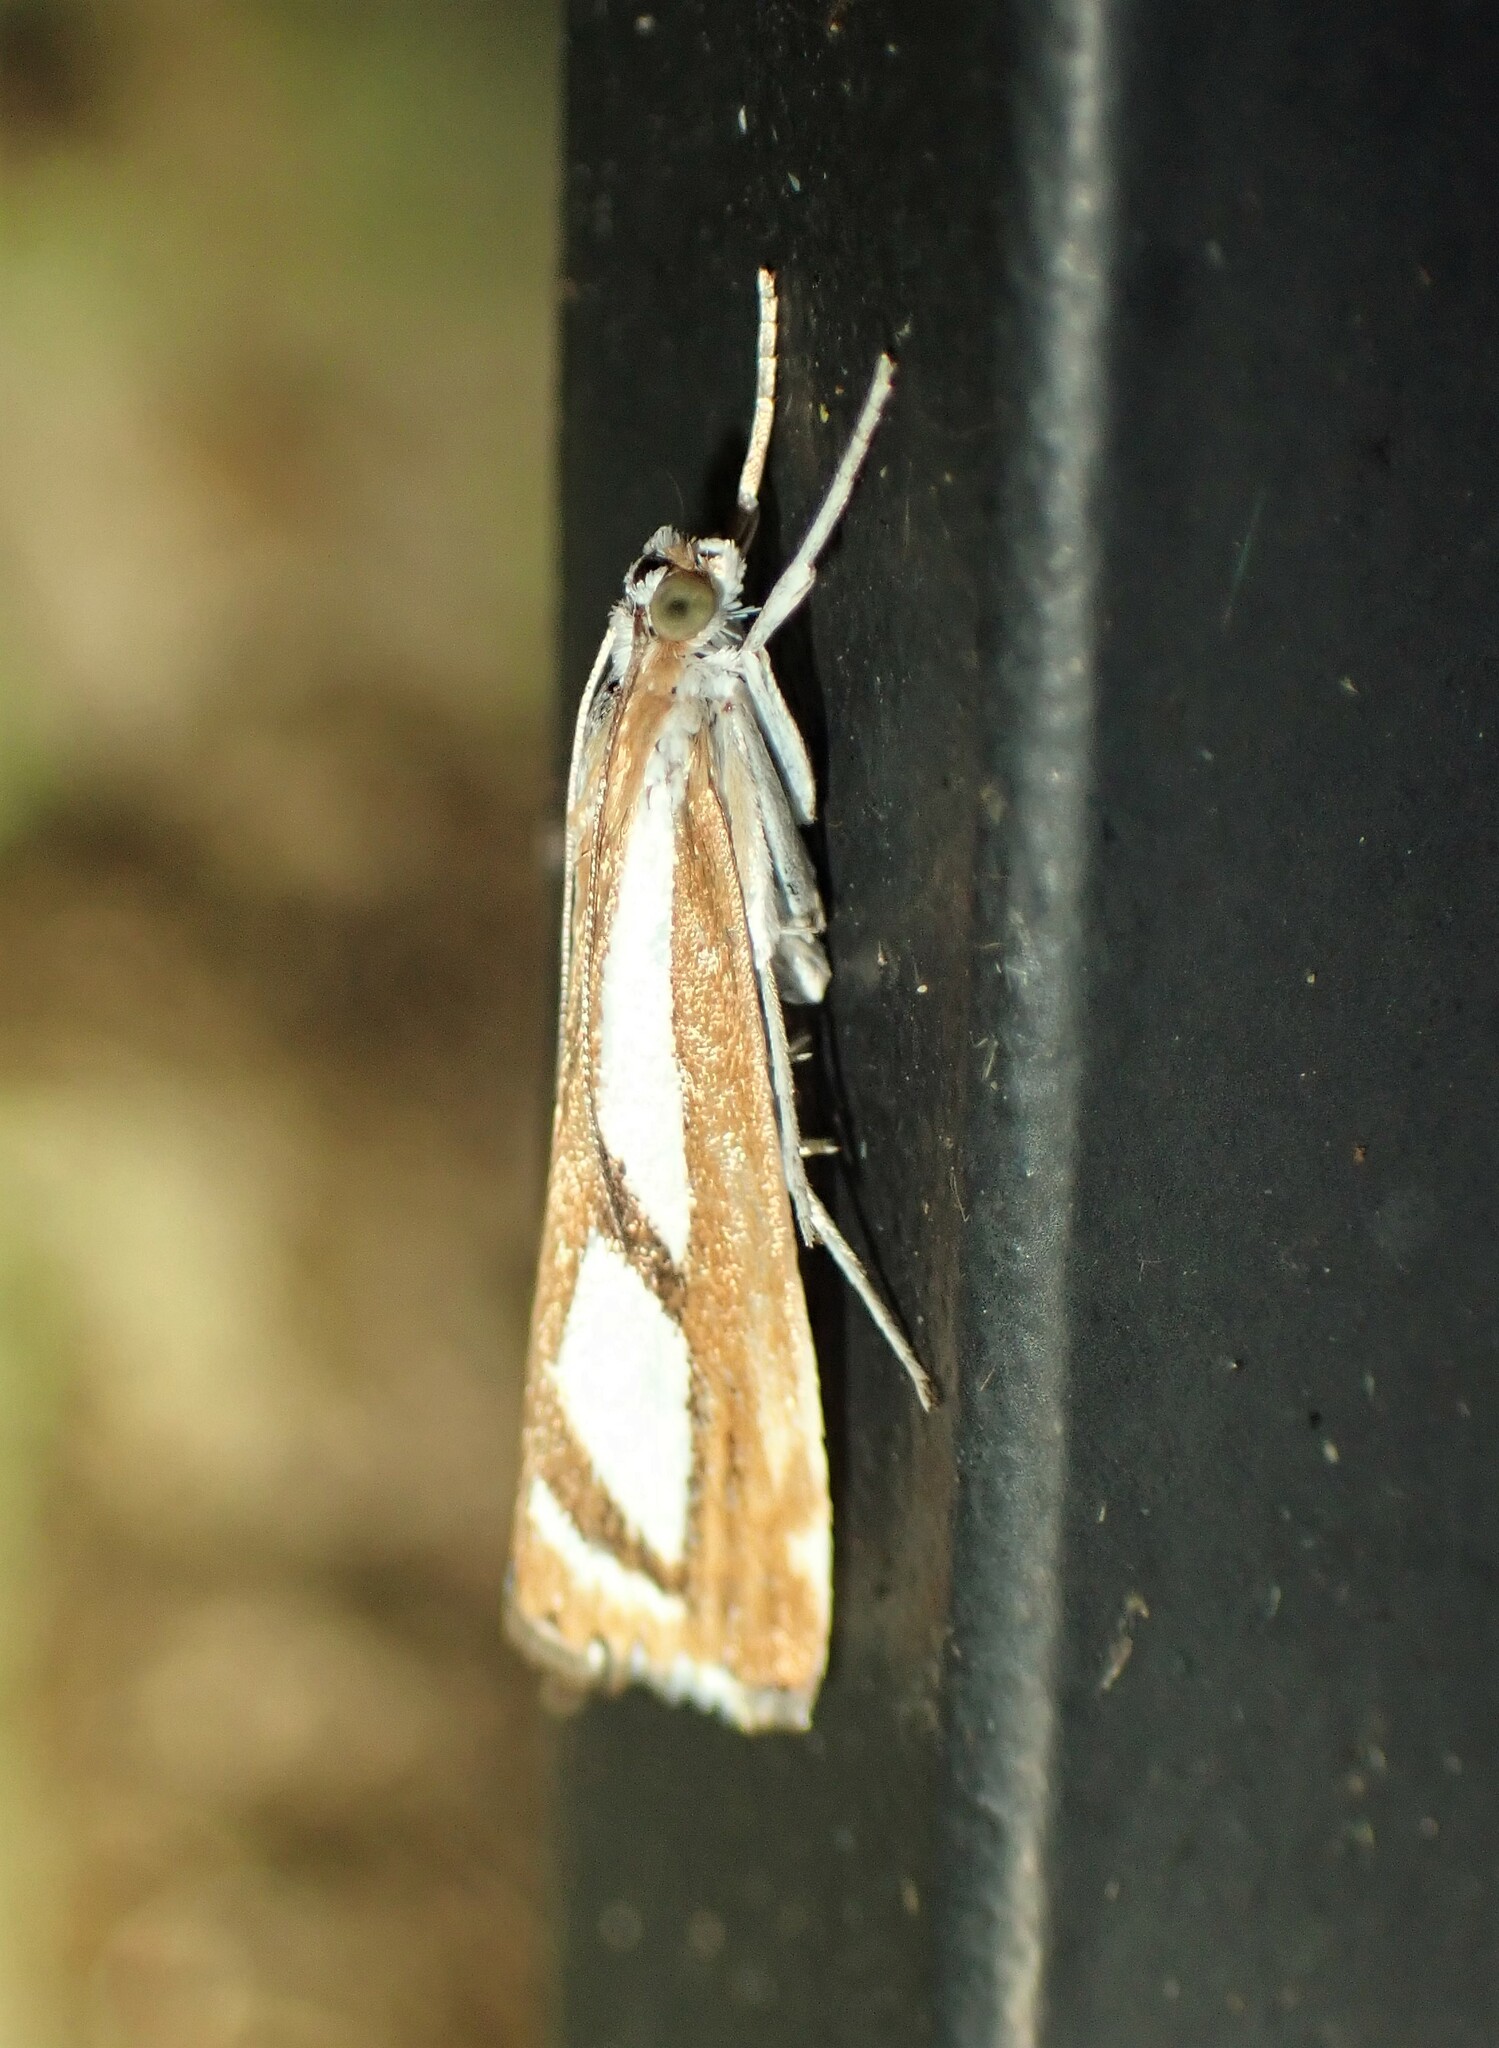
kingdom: Animalia
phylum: Arthropoda
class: Insecta
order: Lepidoptera
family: Crambidae
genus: Catoptria
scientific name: Catoptria latiradiellus
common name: Two-banded catoptria moth
